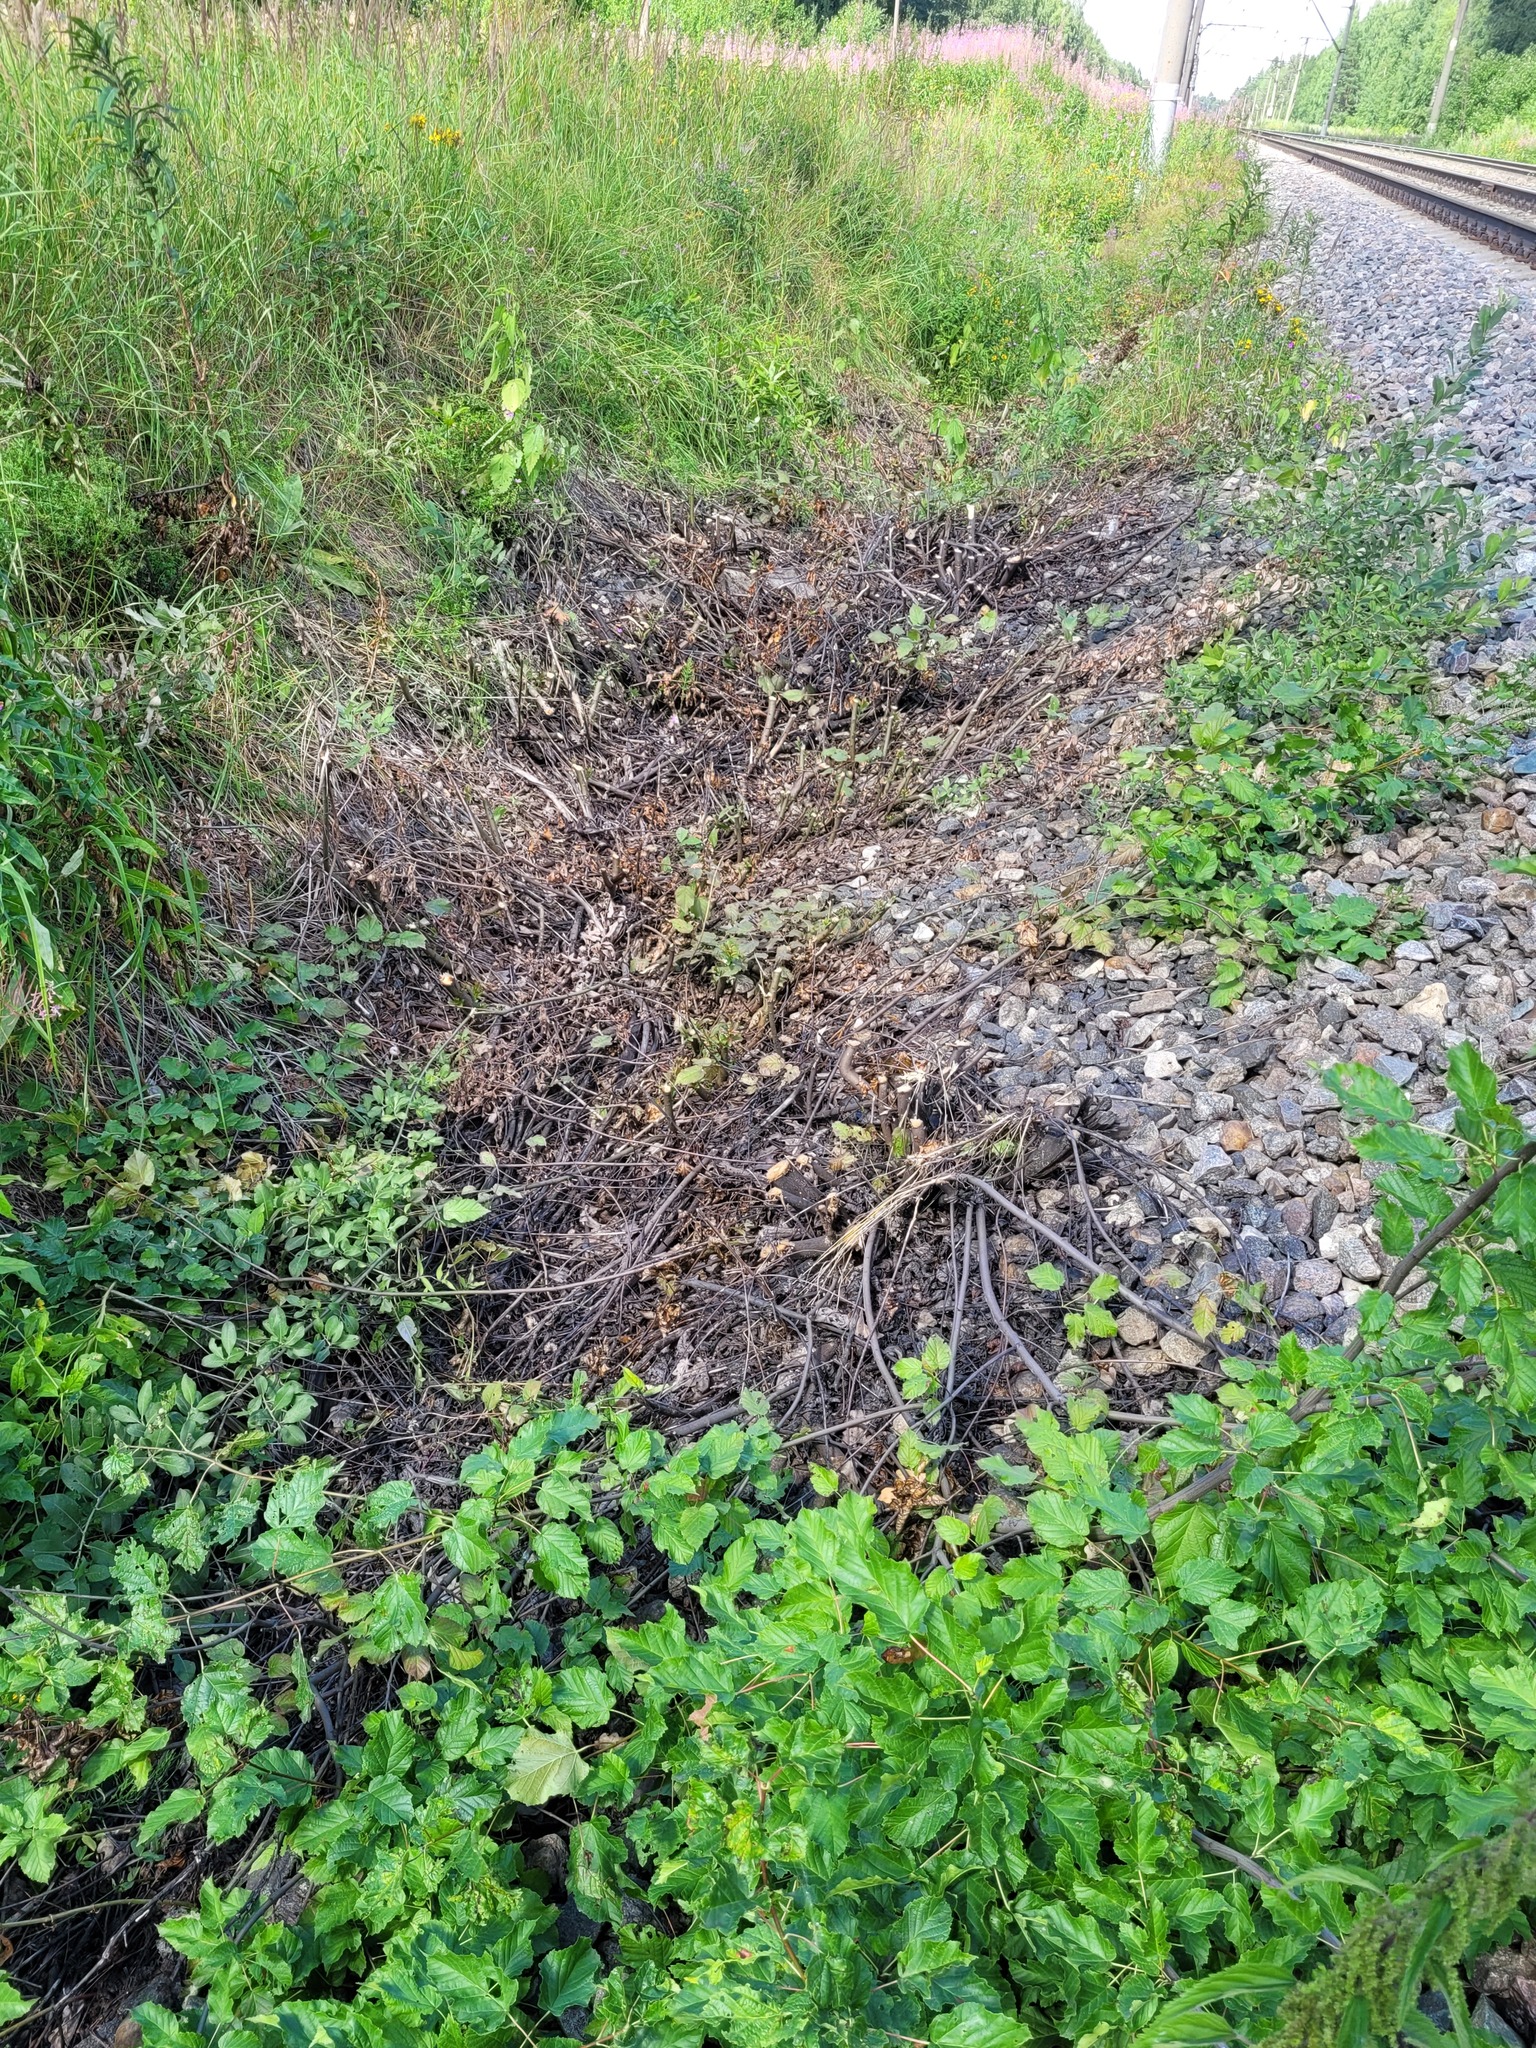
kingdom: Plantae
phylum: Tracheophyta
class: Magnoliopsida
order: Sapindales
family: Sapindaceae
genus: Acer
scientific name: Acer tataricum
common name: Tartar maple
